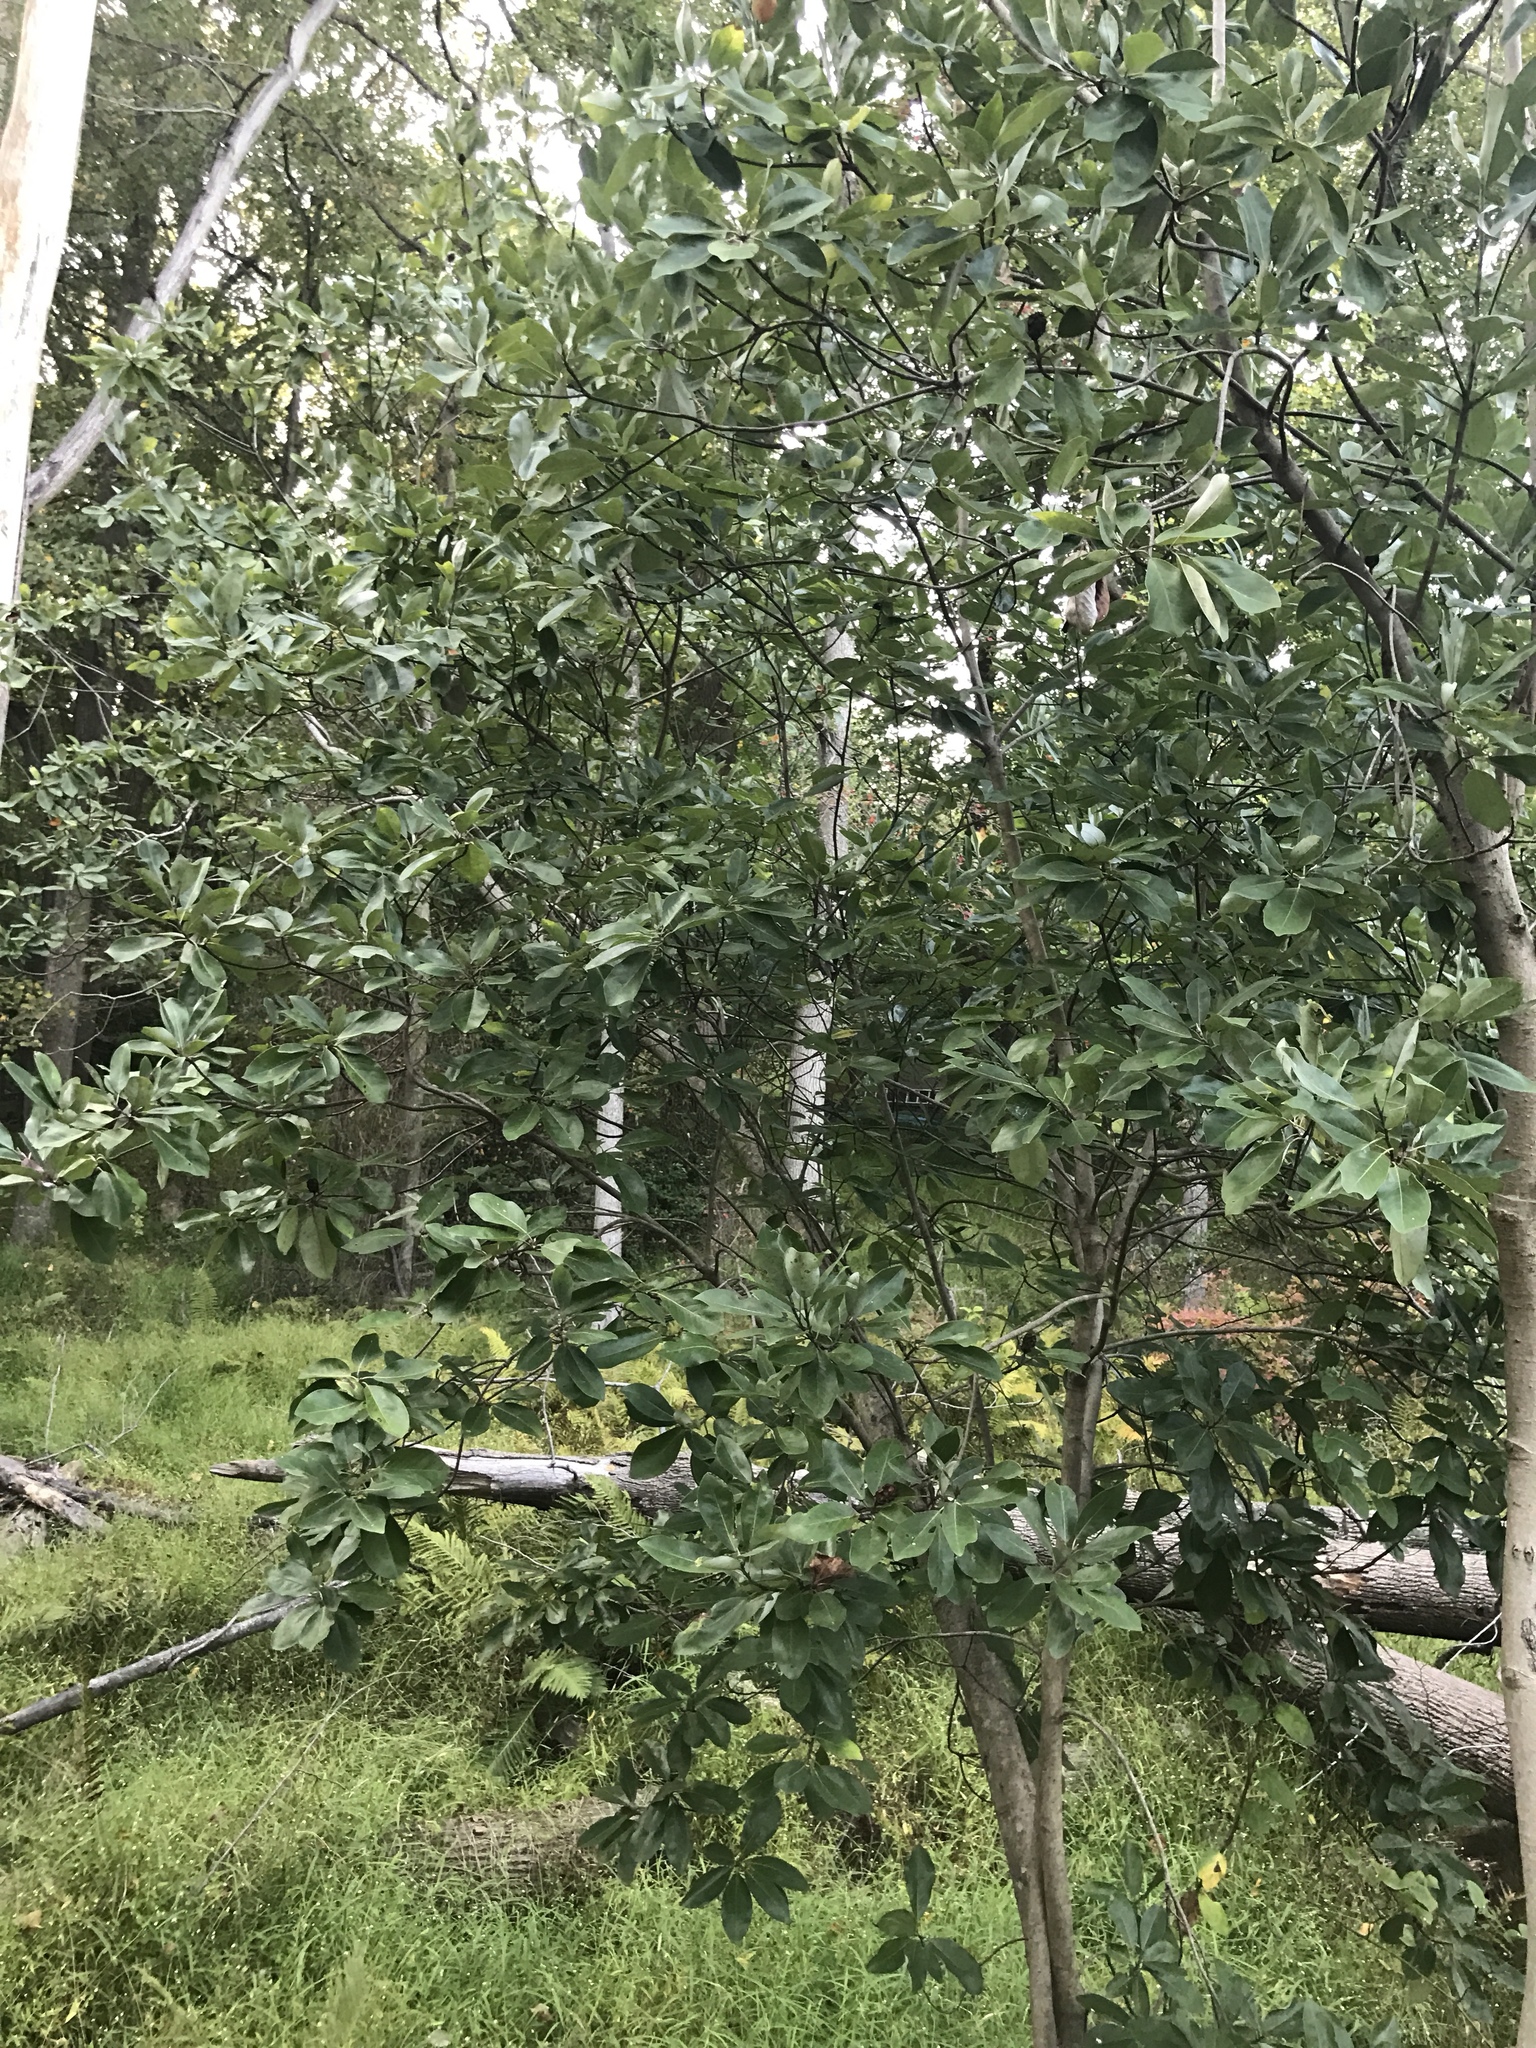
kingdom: Plantae
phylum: Tracheophyta
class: Magnoliopsida
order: Magnoliales
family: Magnoliaceae
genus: Magnolia
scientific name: Magnolia virginiana
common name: Swamp bay
